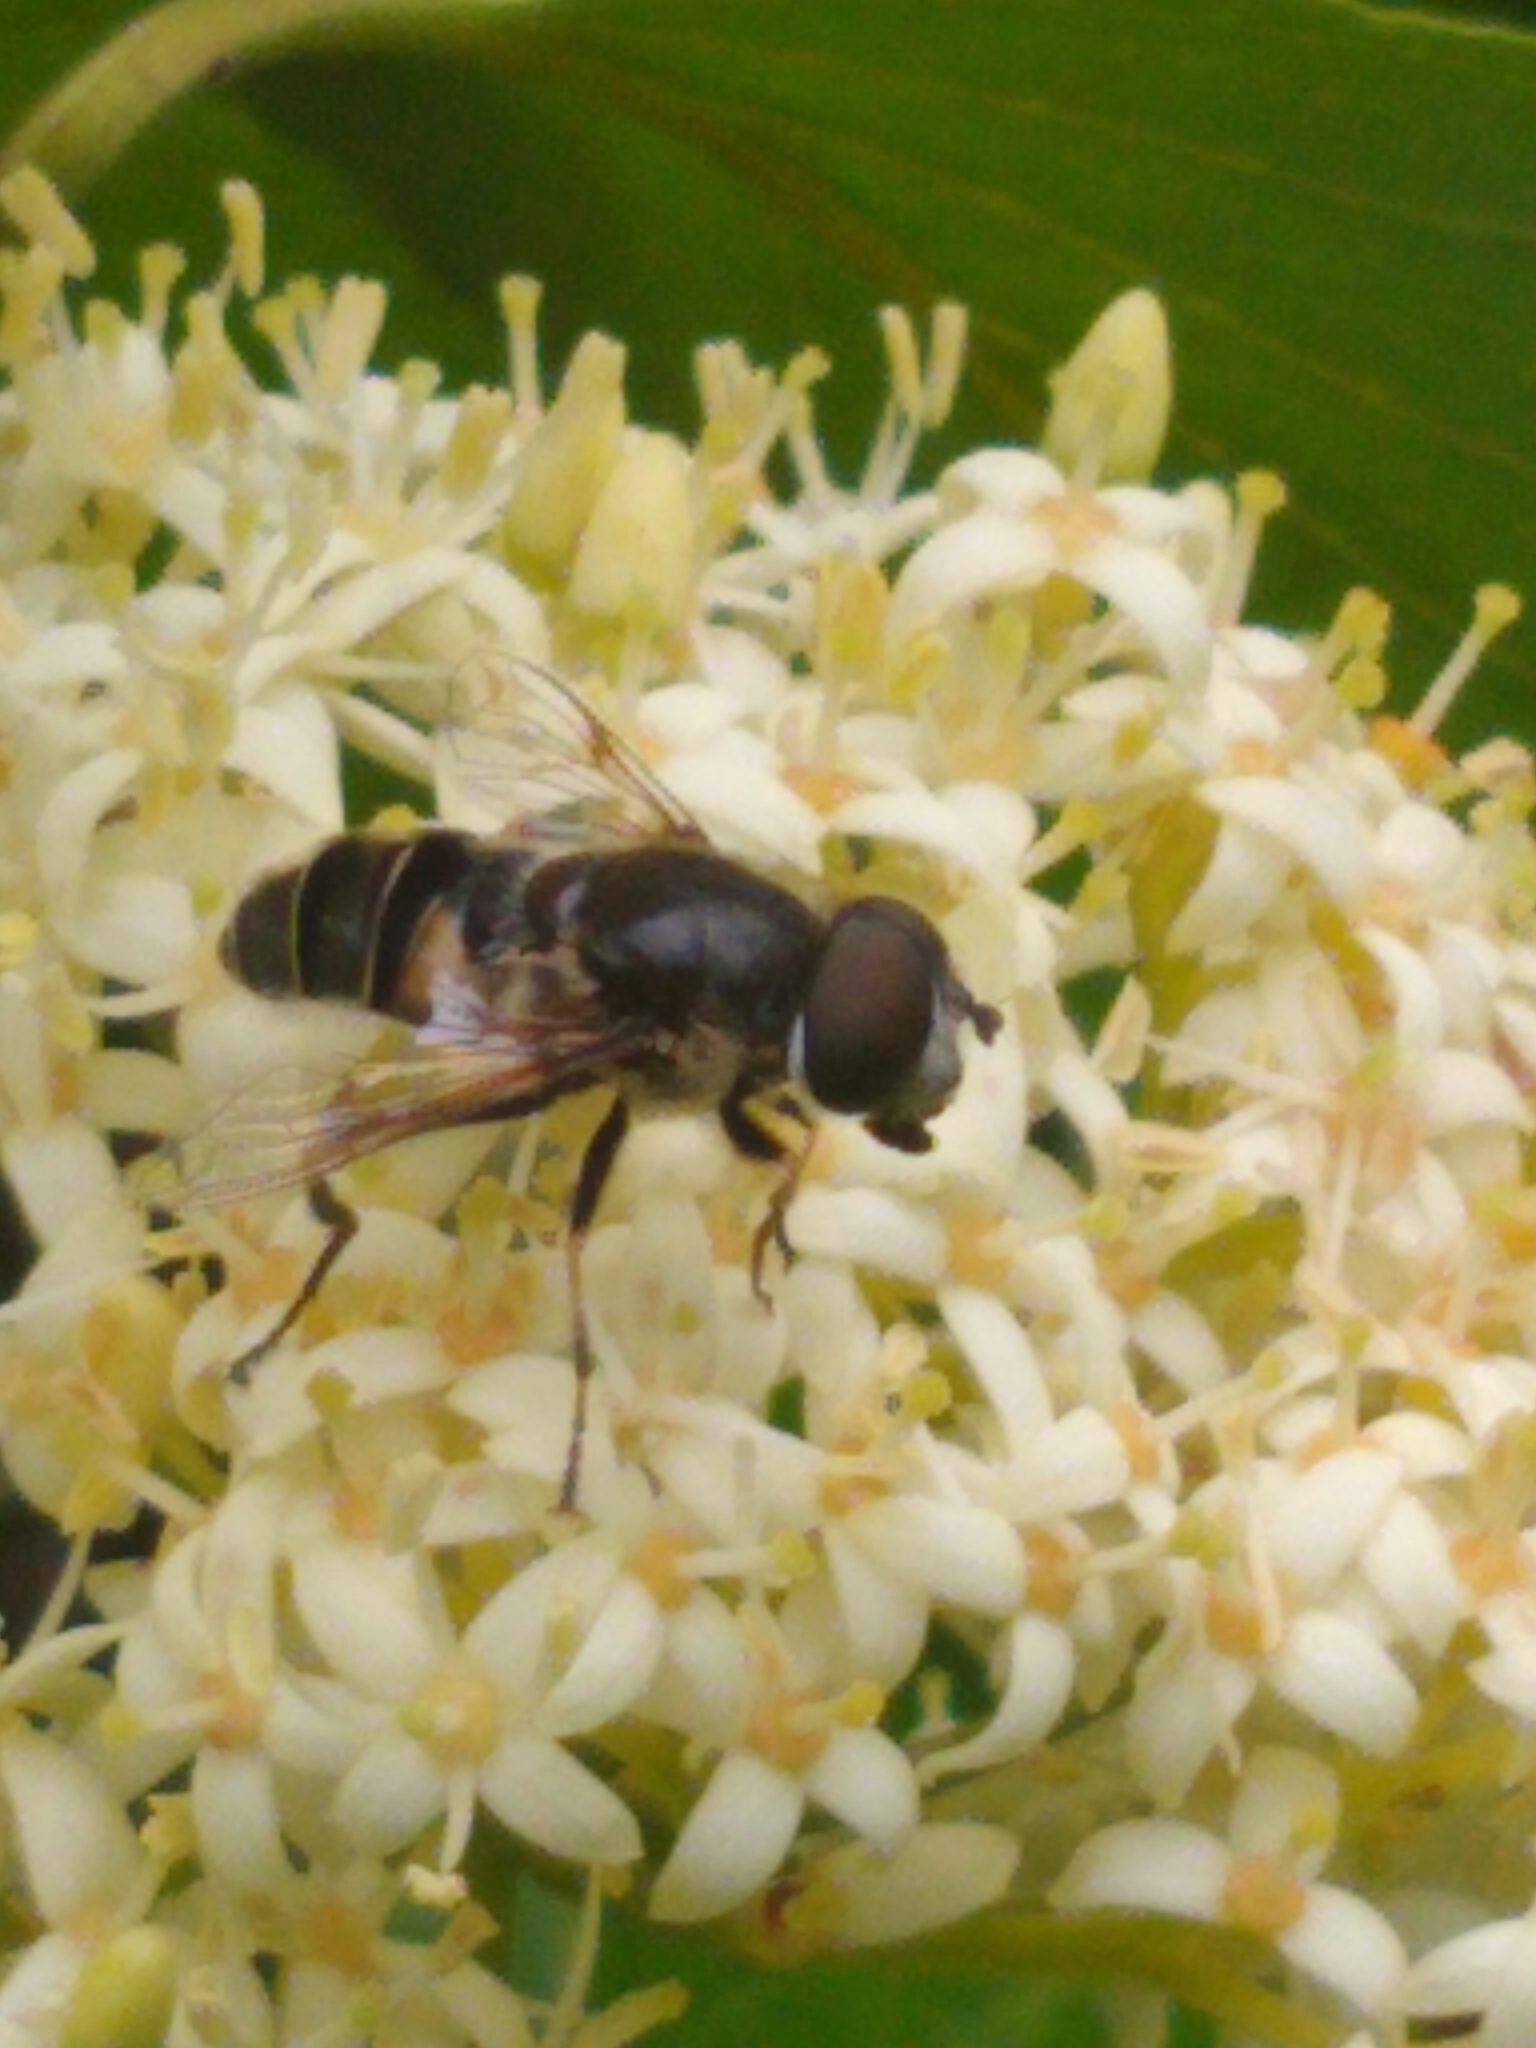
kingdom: Animalia
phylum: Arthropoda
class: Insecta
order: Diptera
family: Syrphidae
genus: Eristalis
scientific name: Eristalis dimidiata
